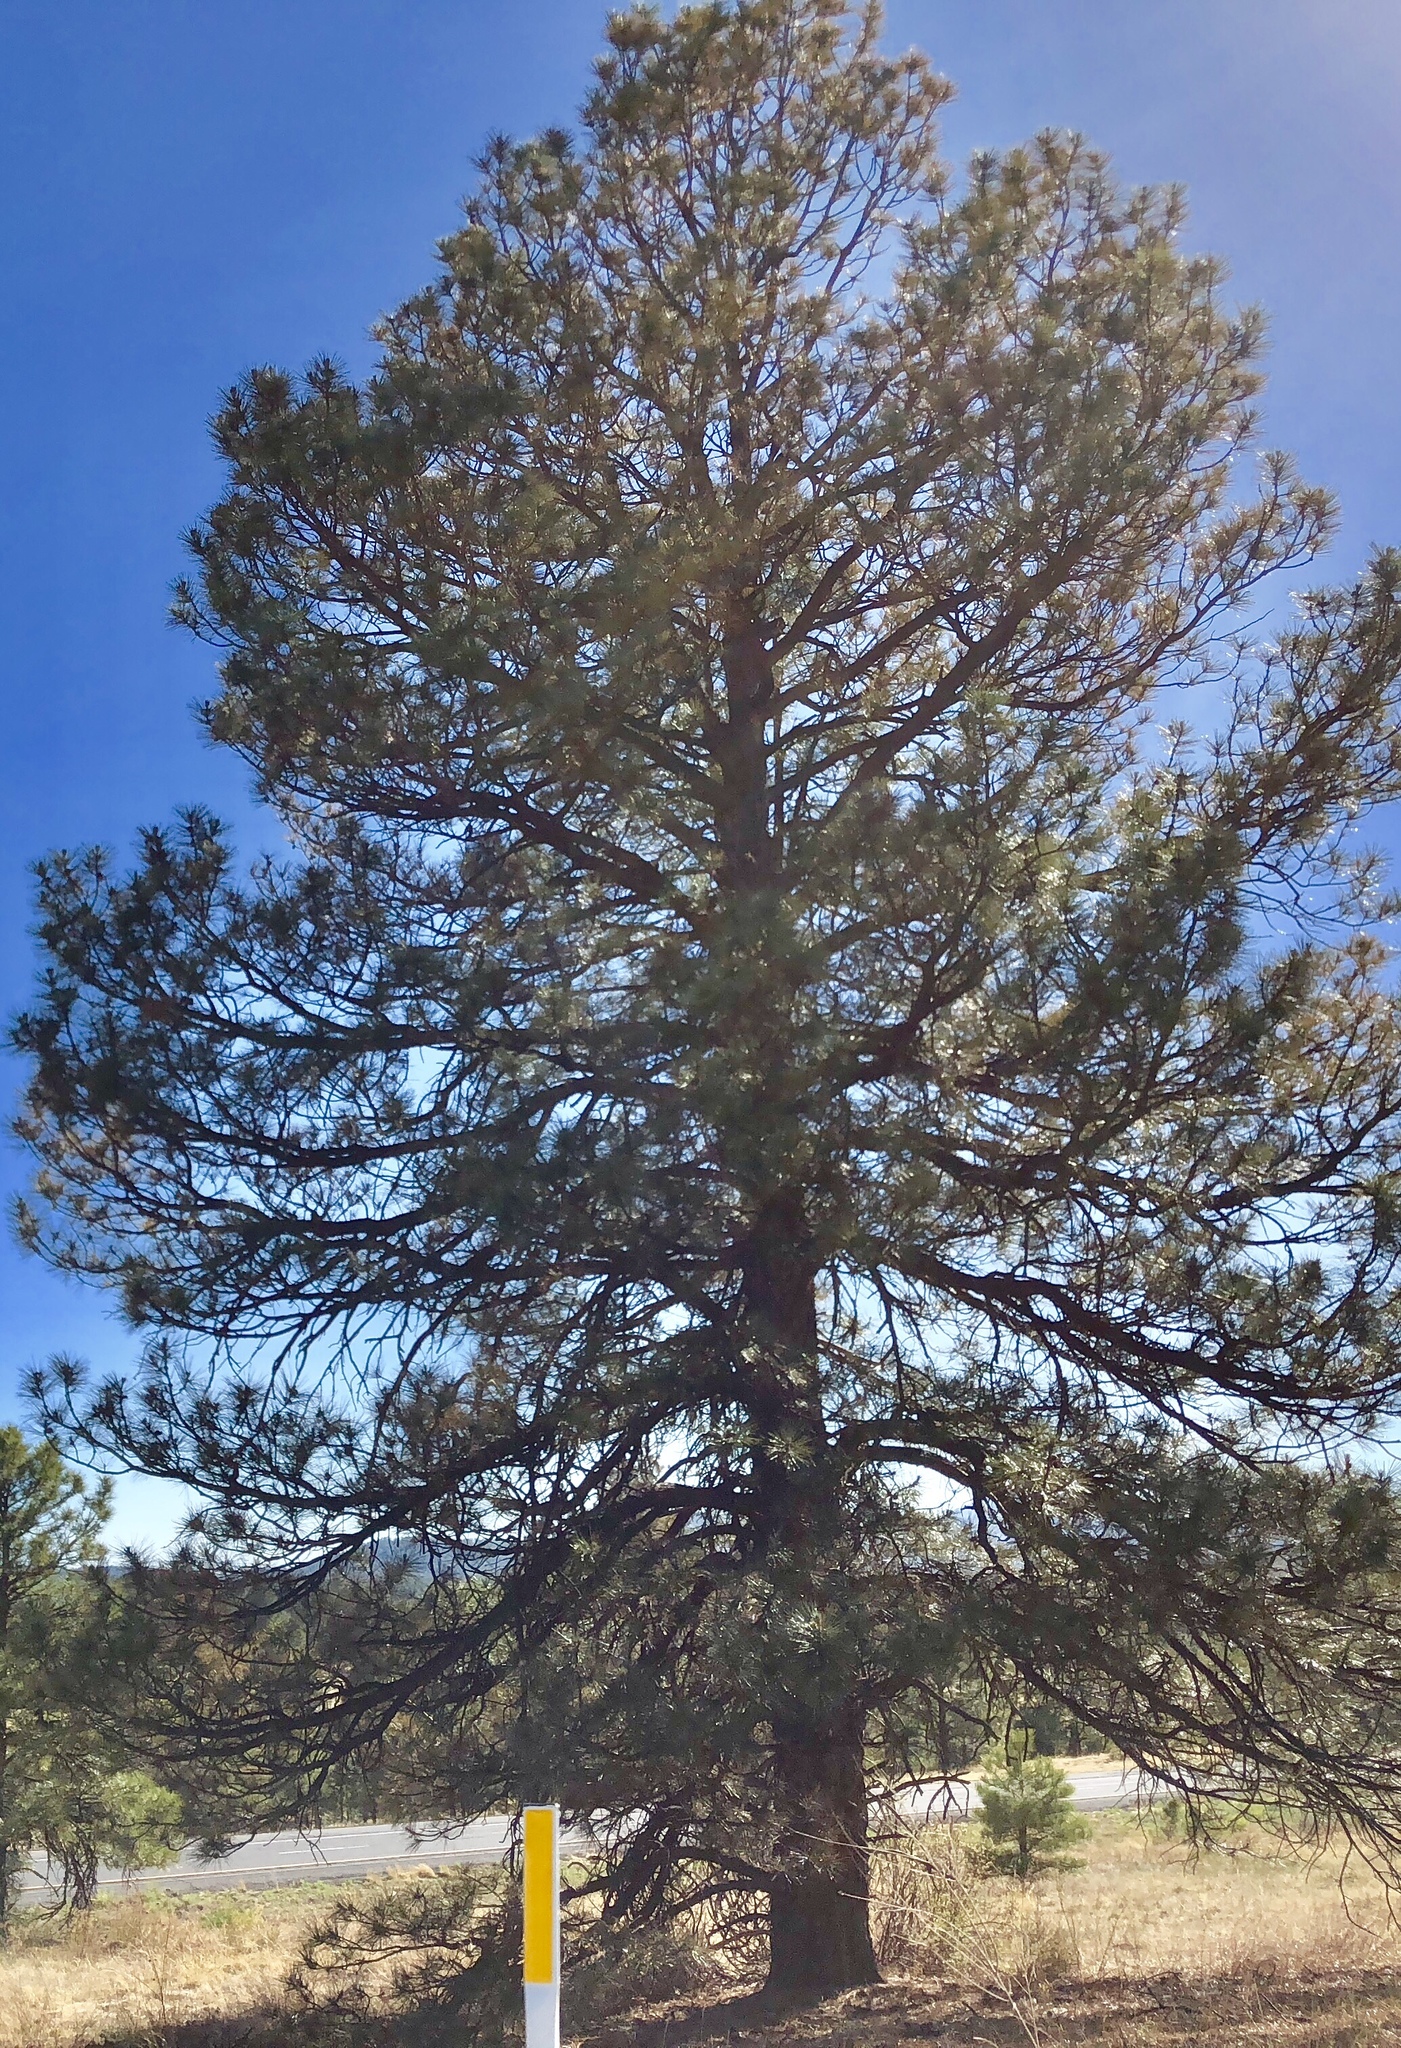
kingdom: Plantae
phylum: Tracheophyta
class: Pinopsida
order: Pinales
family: Pinaceae
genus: Pinus
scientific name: Pinus ponderosa
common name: Western yellow-pine
